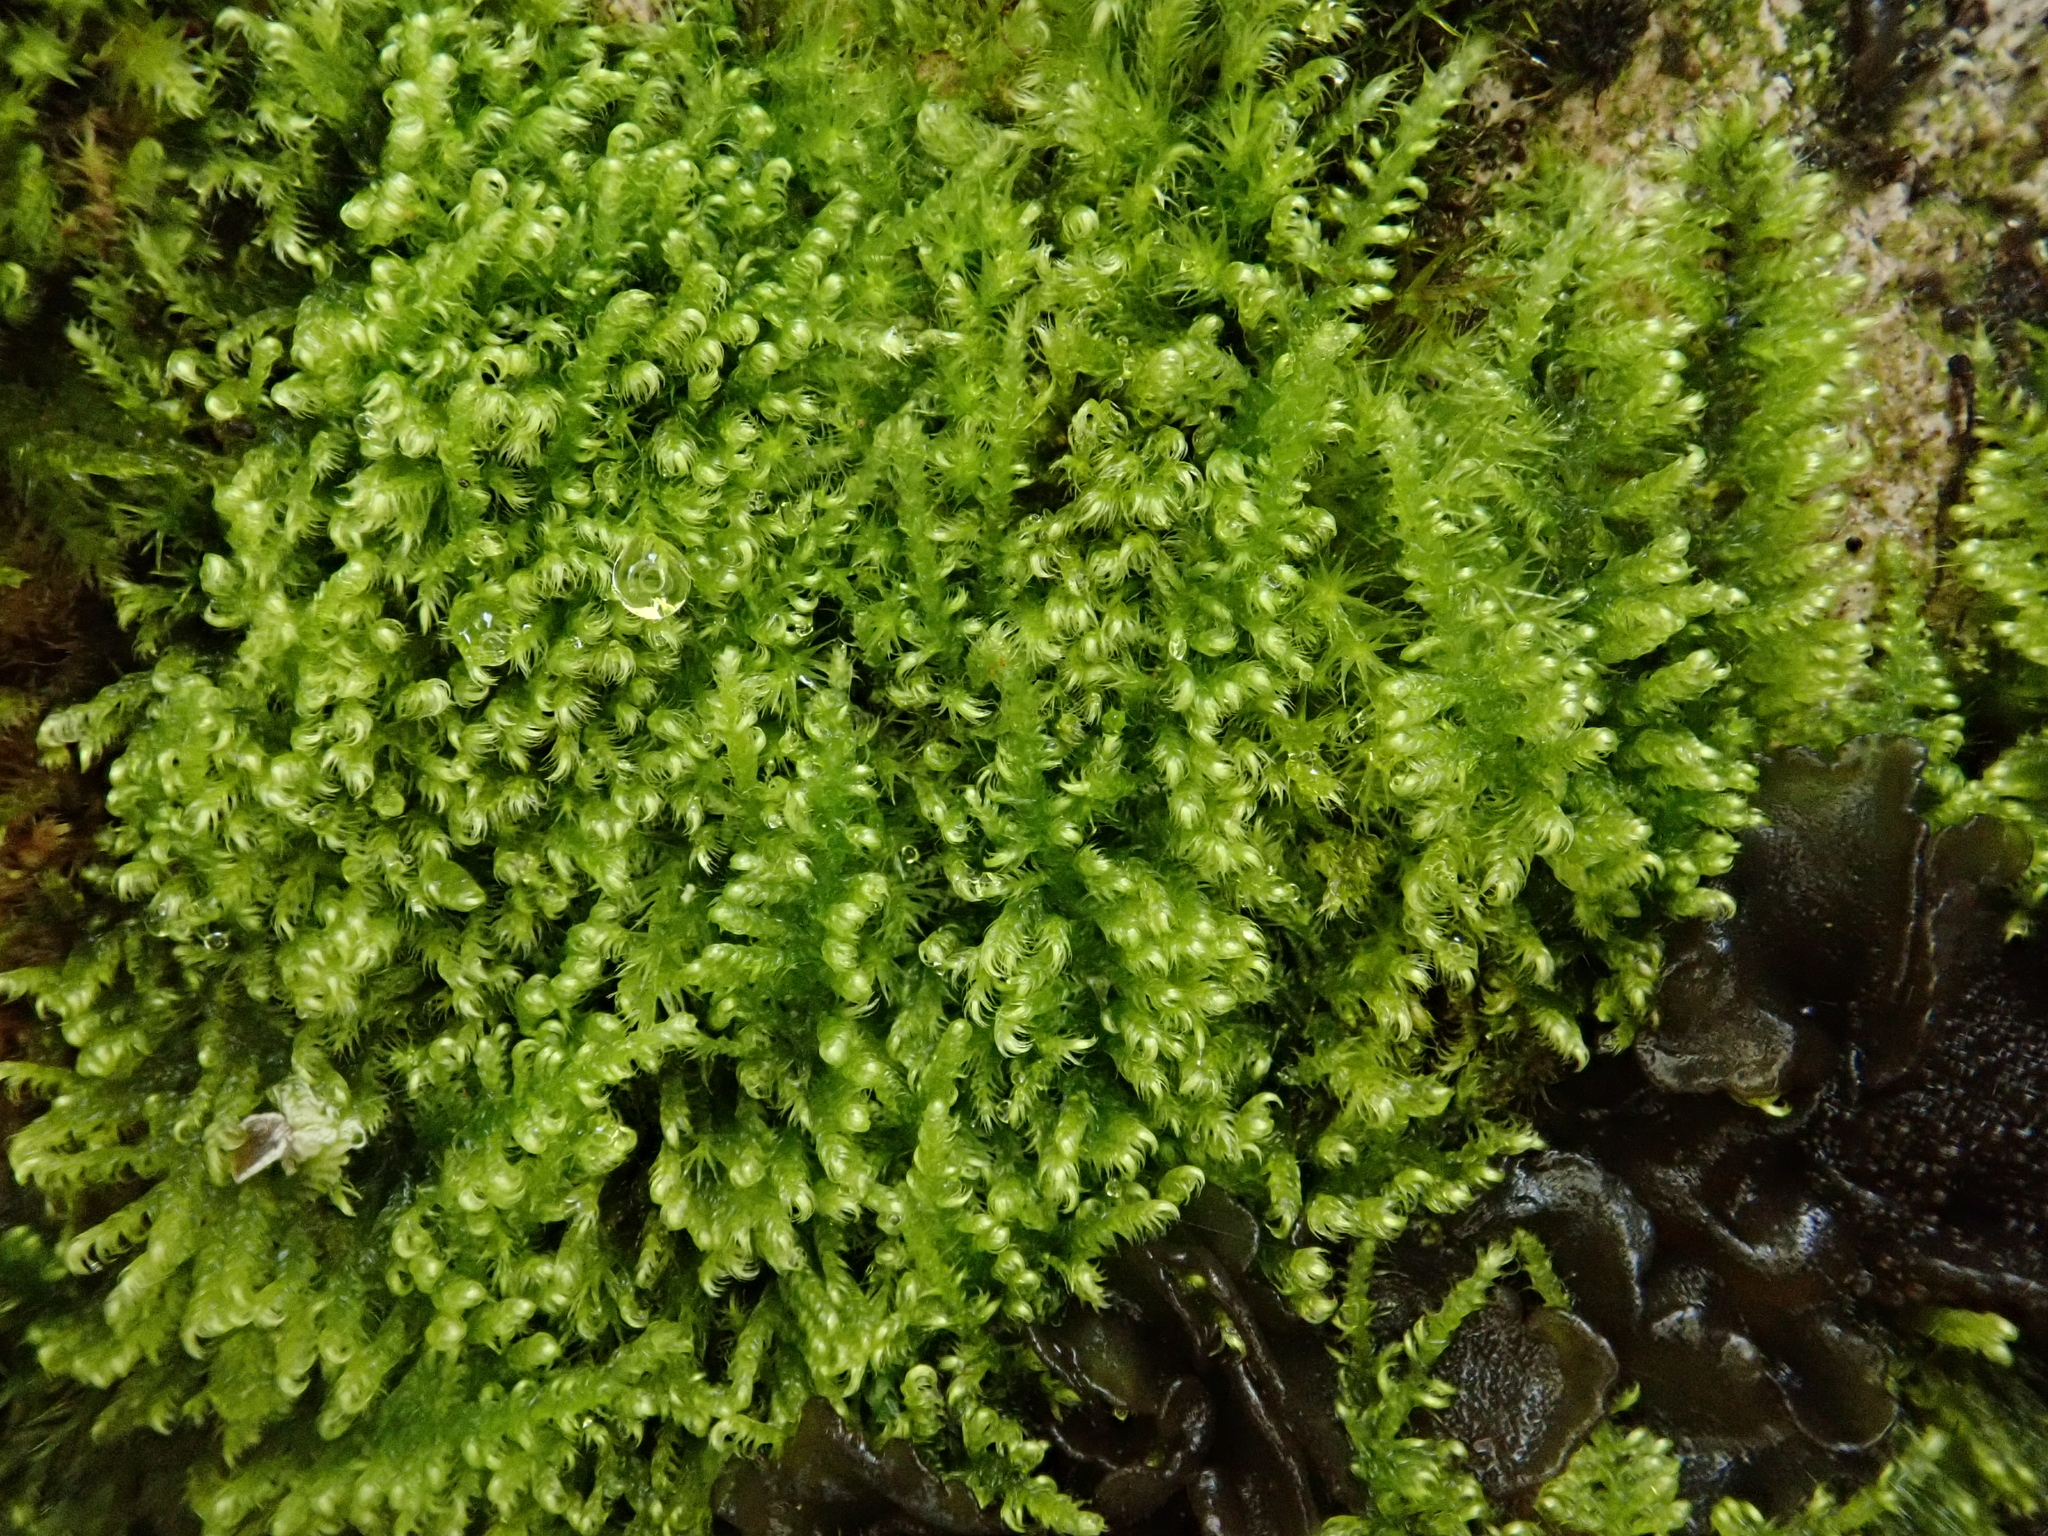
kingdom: Plantae
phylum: Bryophyta
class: Bryopsida
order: Hypnales
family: Myuriaceae
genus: Ctenidium
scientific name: Ctenidium molluscum
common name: Chalk comb-moss
